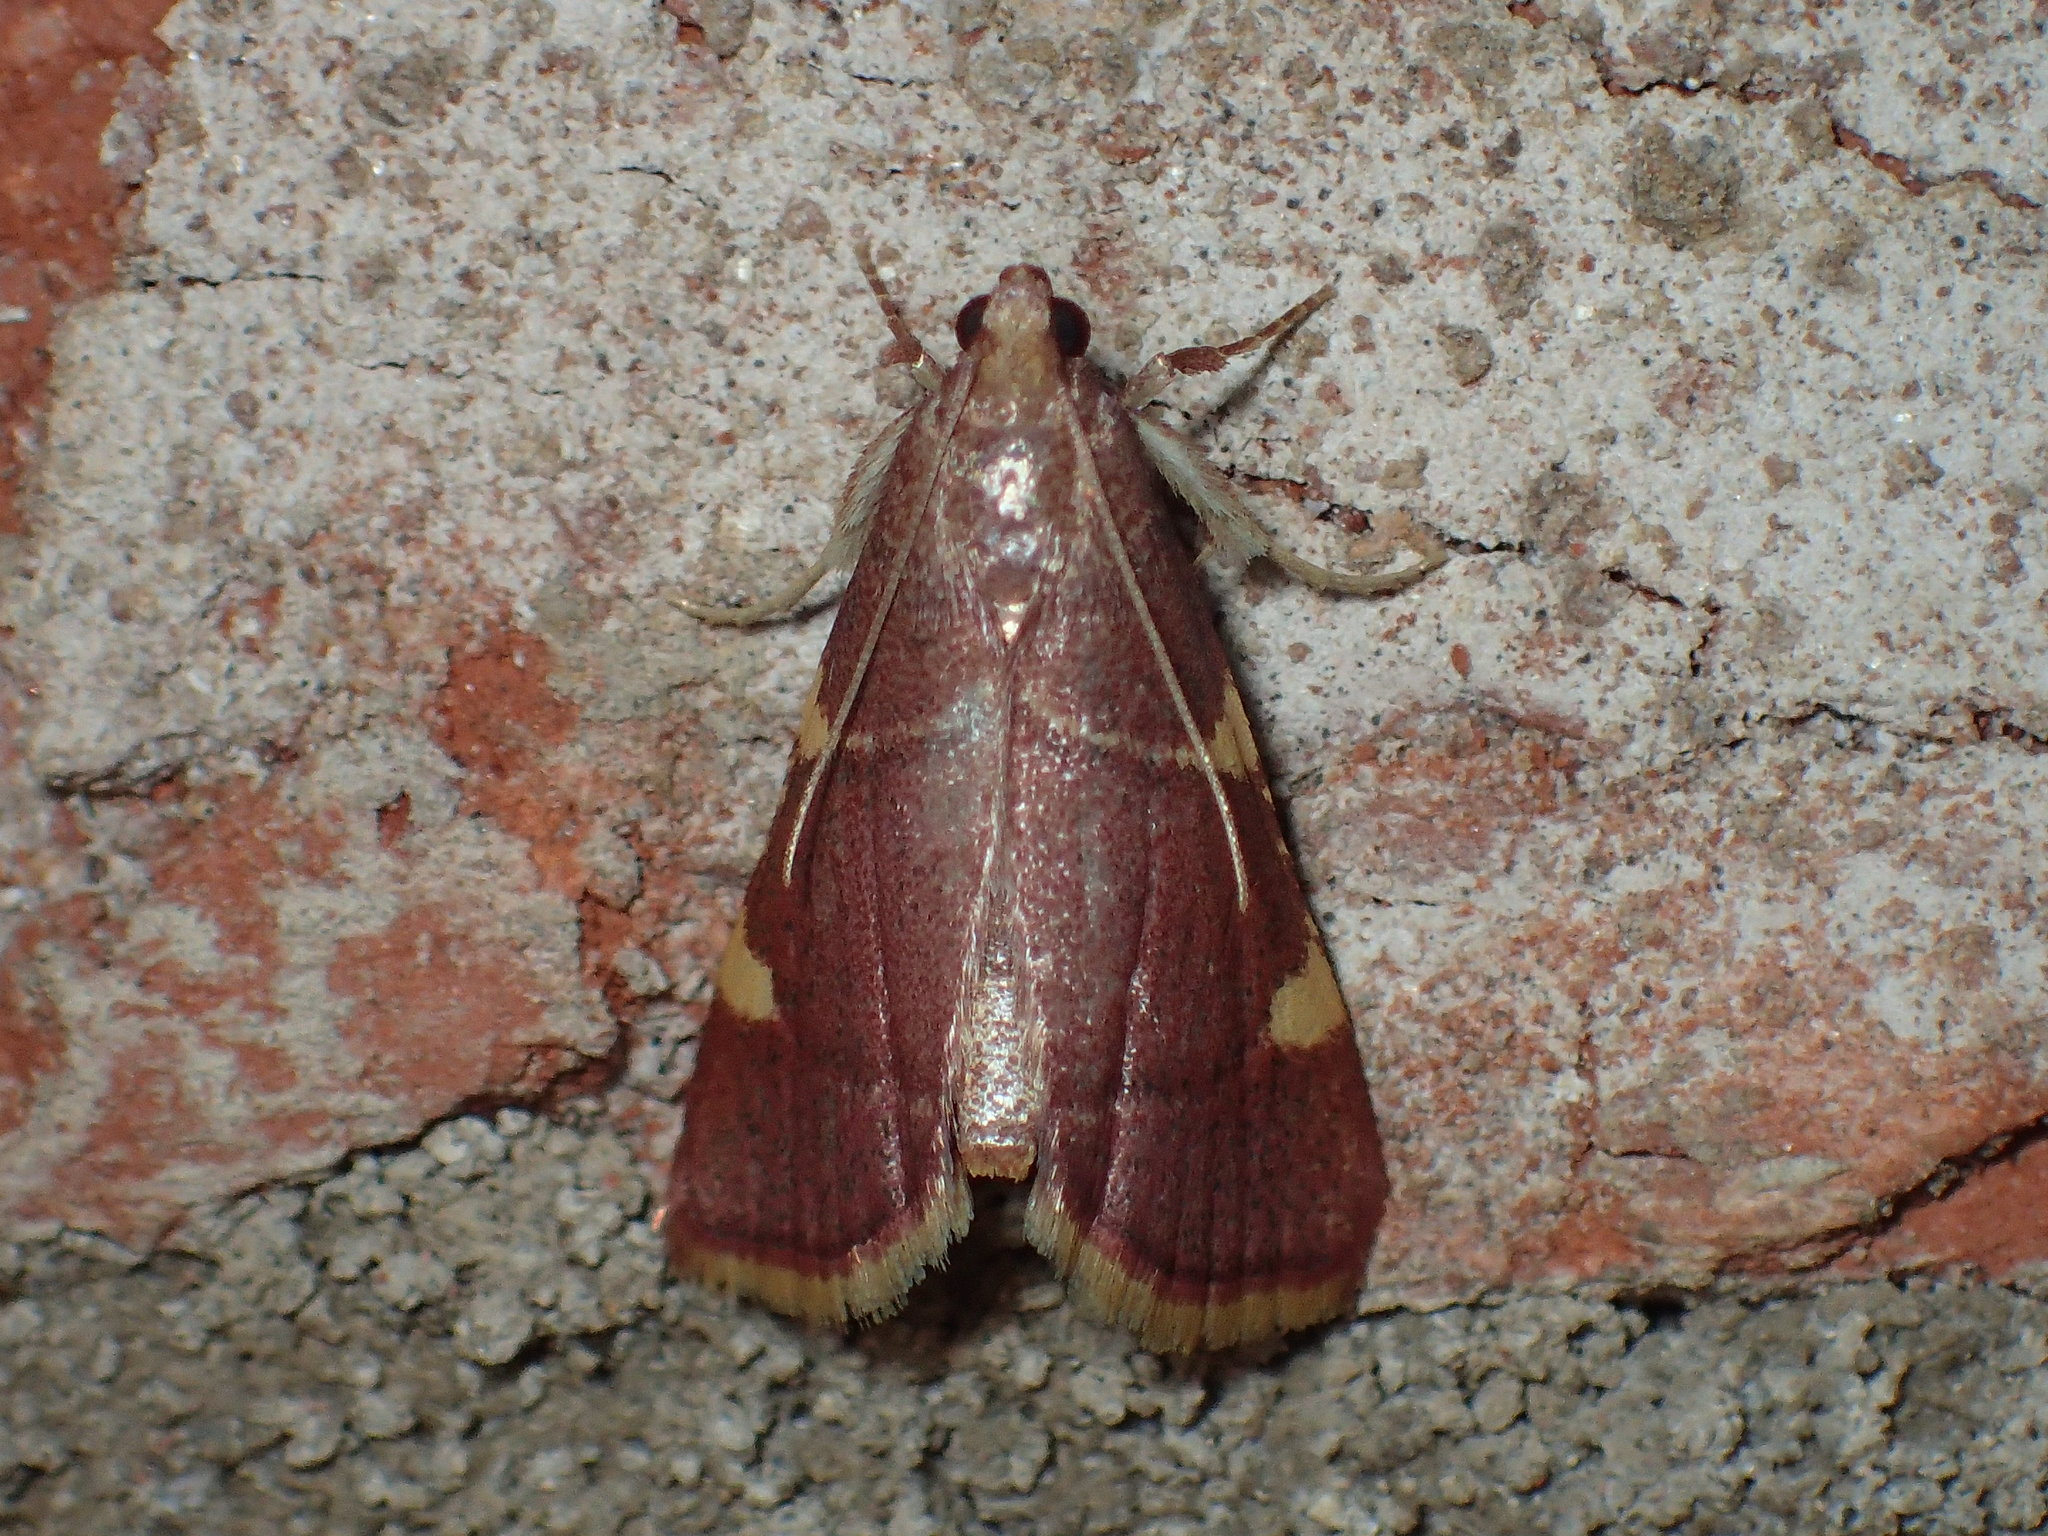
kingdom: Animalia
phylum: Arthropoda
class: Insecta
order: Lepidoptera
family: Pyralidae
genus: Hypsopygia
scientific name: Hypsopygia olinalis
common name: Yellow-fringed dolichomia moth
